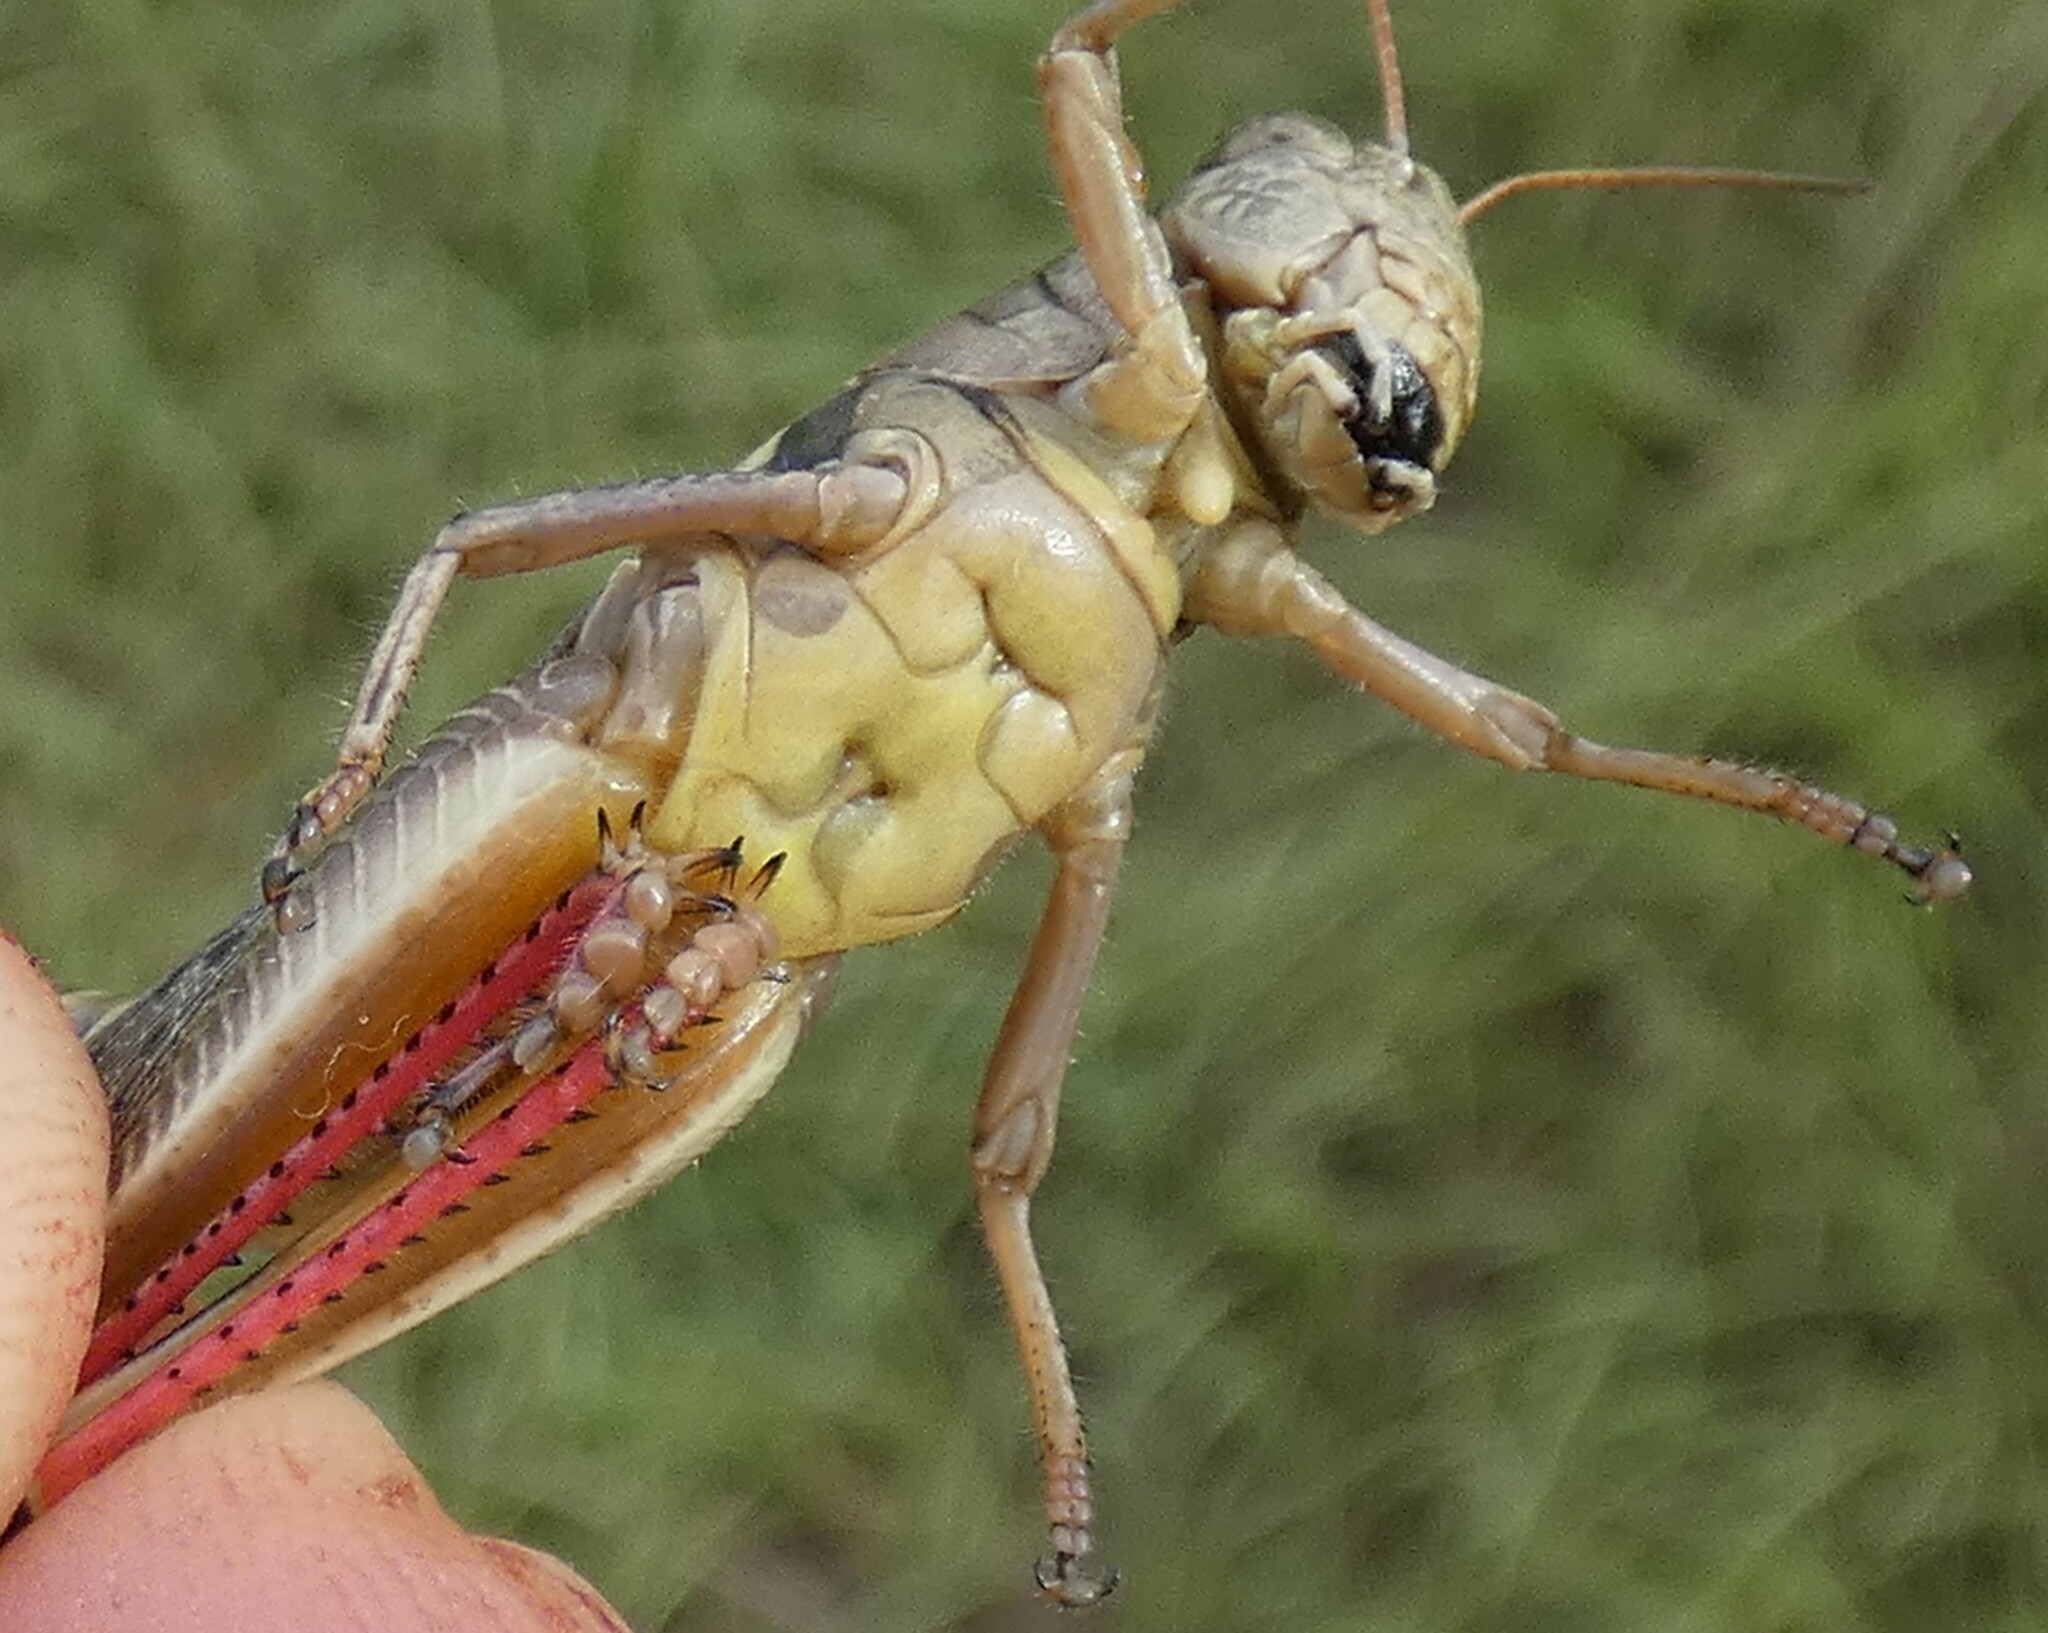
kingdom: Animalia
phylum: Arthropoda
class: Insecta
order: Orthoptera
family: Acrididae
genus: Melanoplus
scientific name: Melanoplus keeleri
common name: Keeler grasshopper
